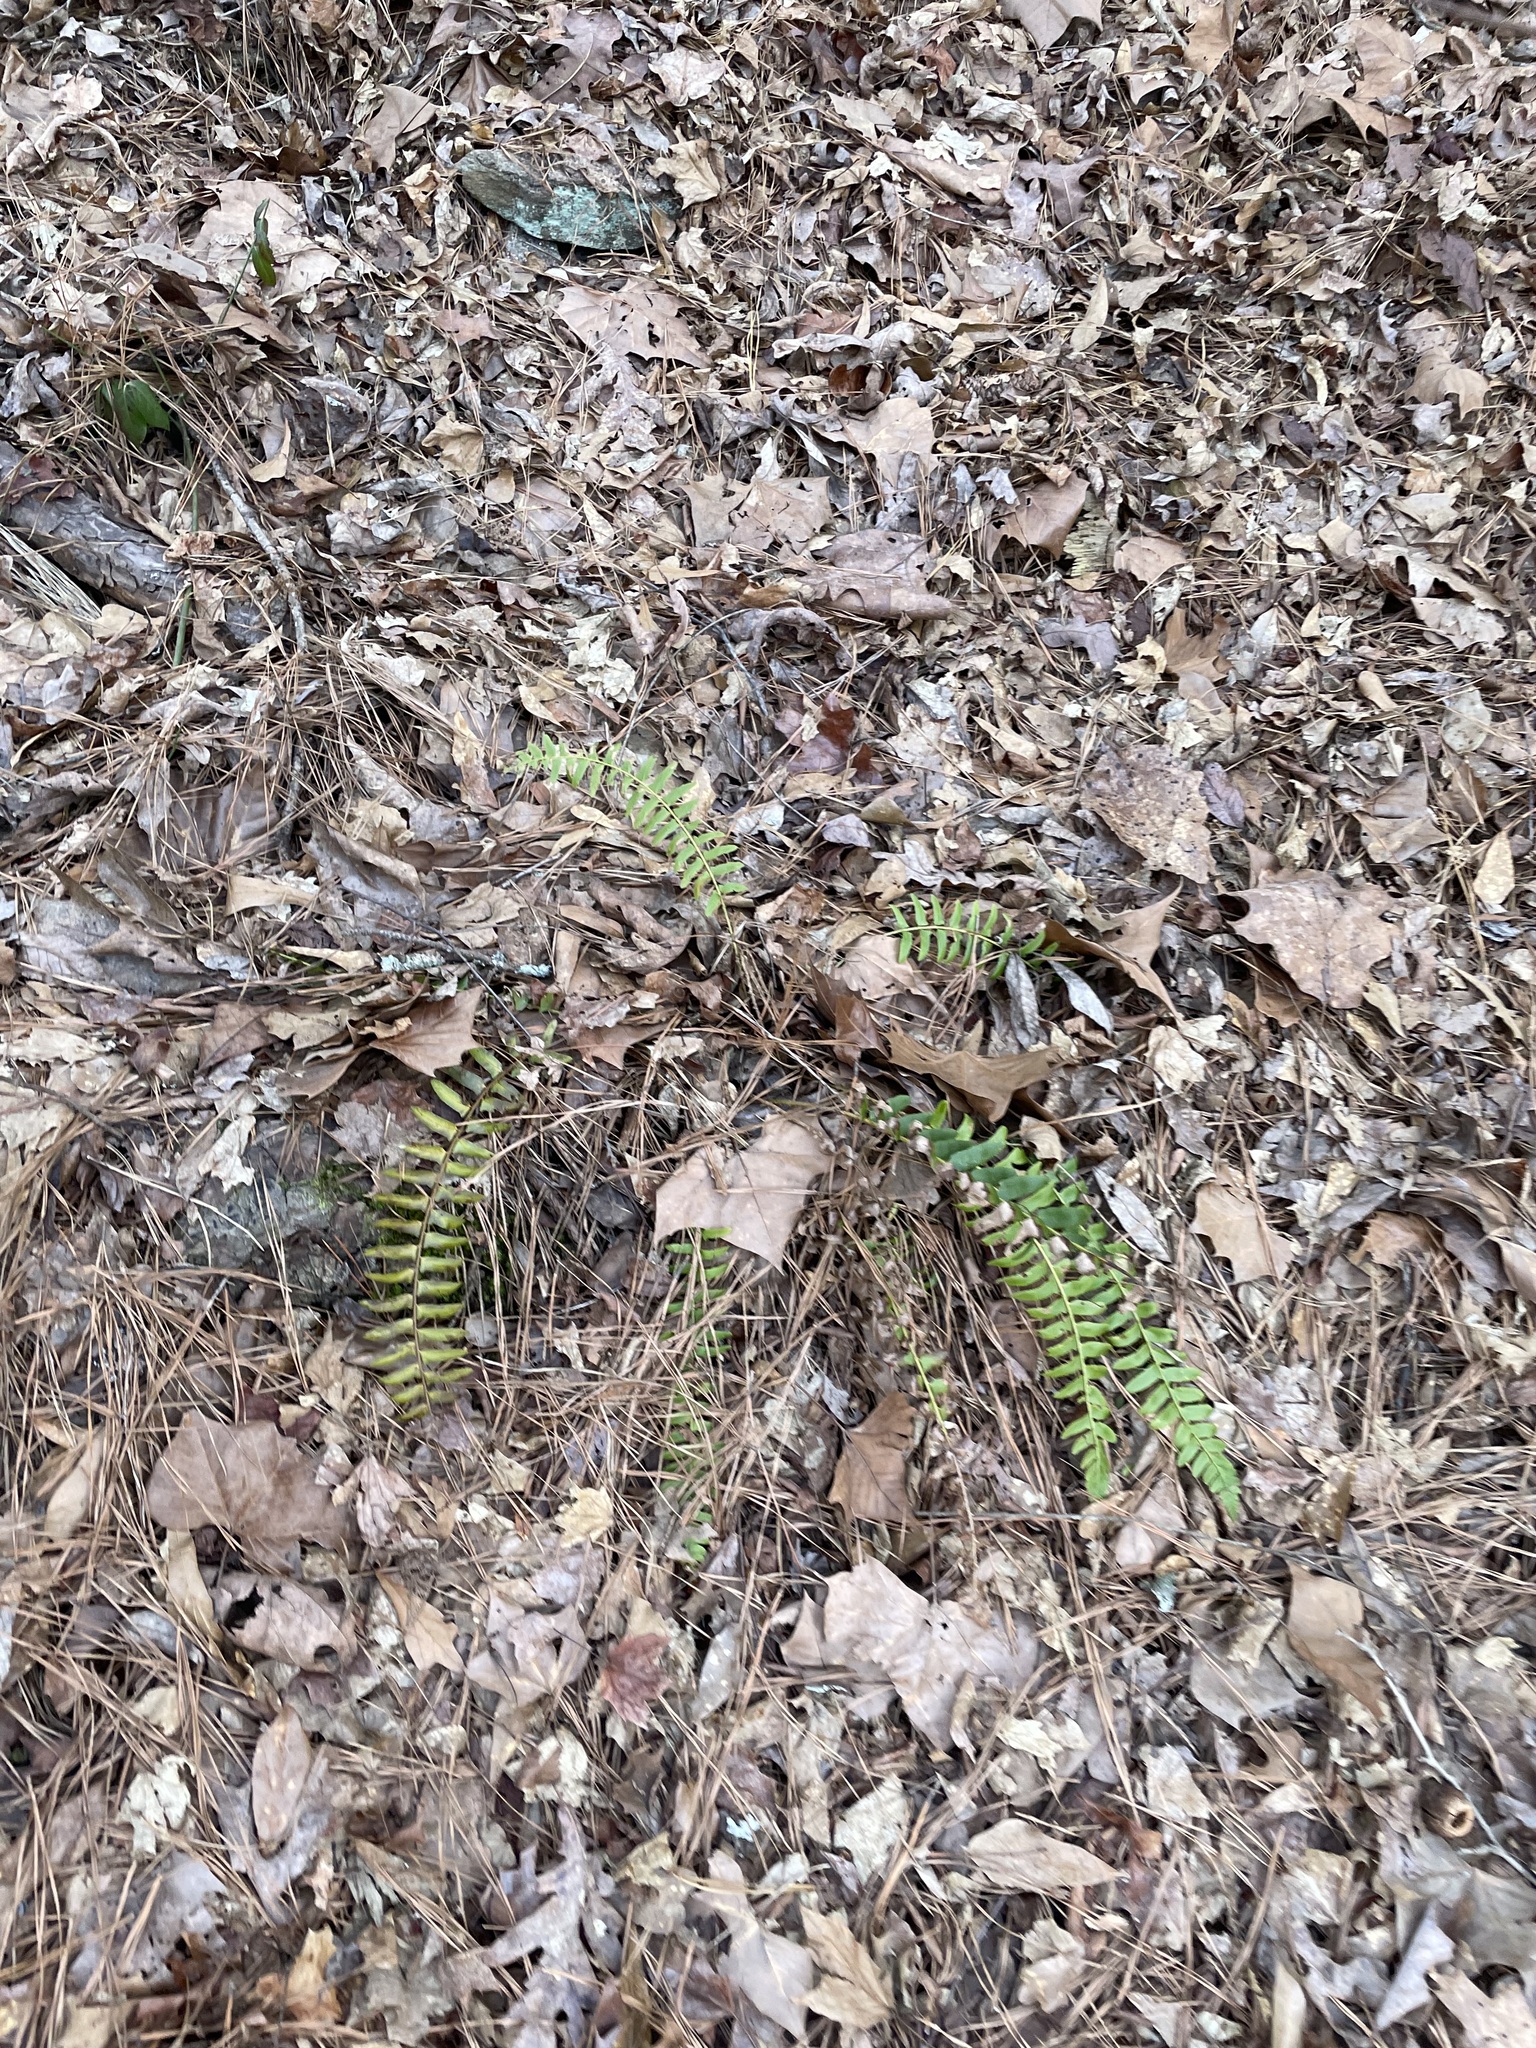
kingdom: Plantae
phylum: Tracheophyta
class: Polypodiopsida
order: Polypodiales
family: Dryopteridaceae
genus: Polystichum
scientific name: Polystichum acrostichoides
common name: Christmas fern
